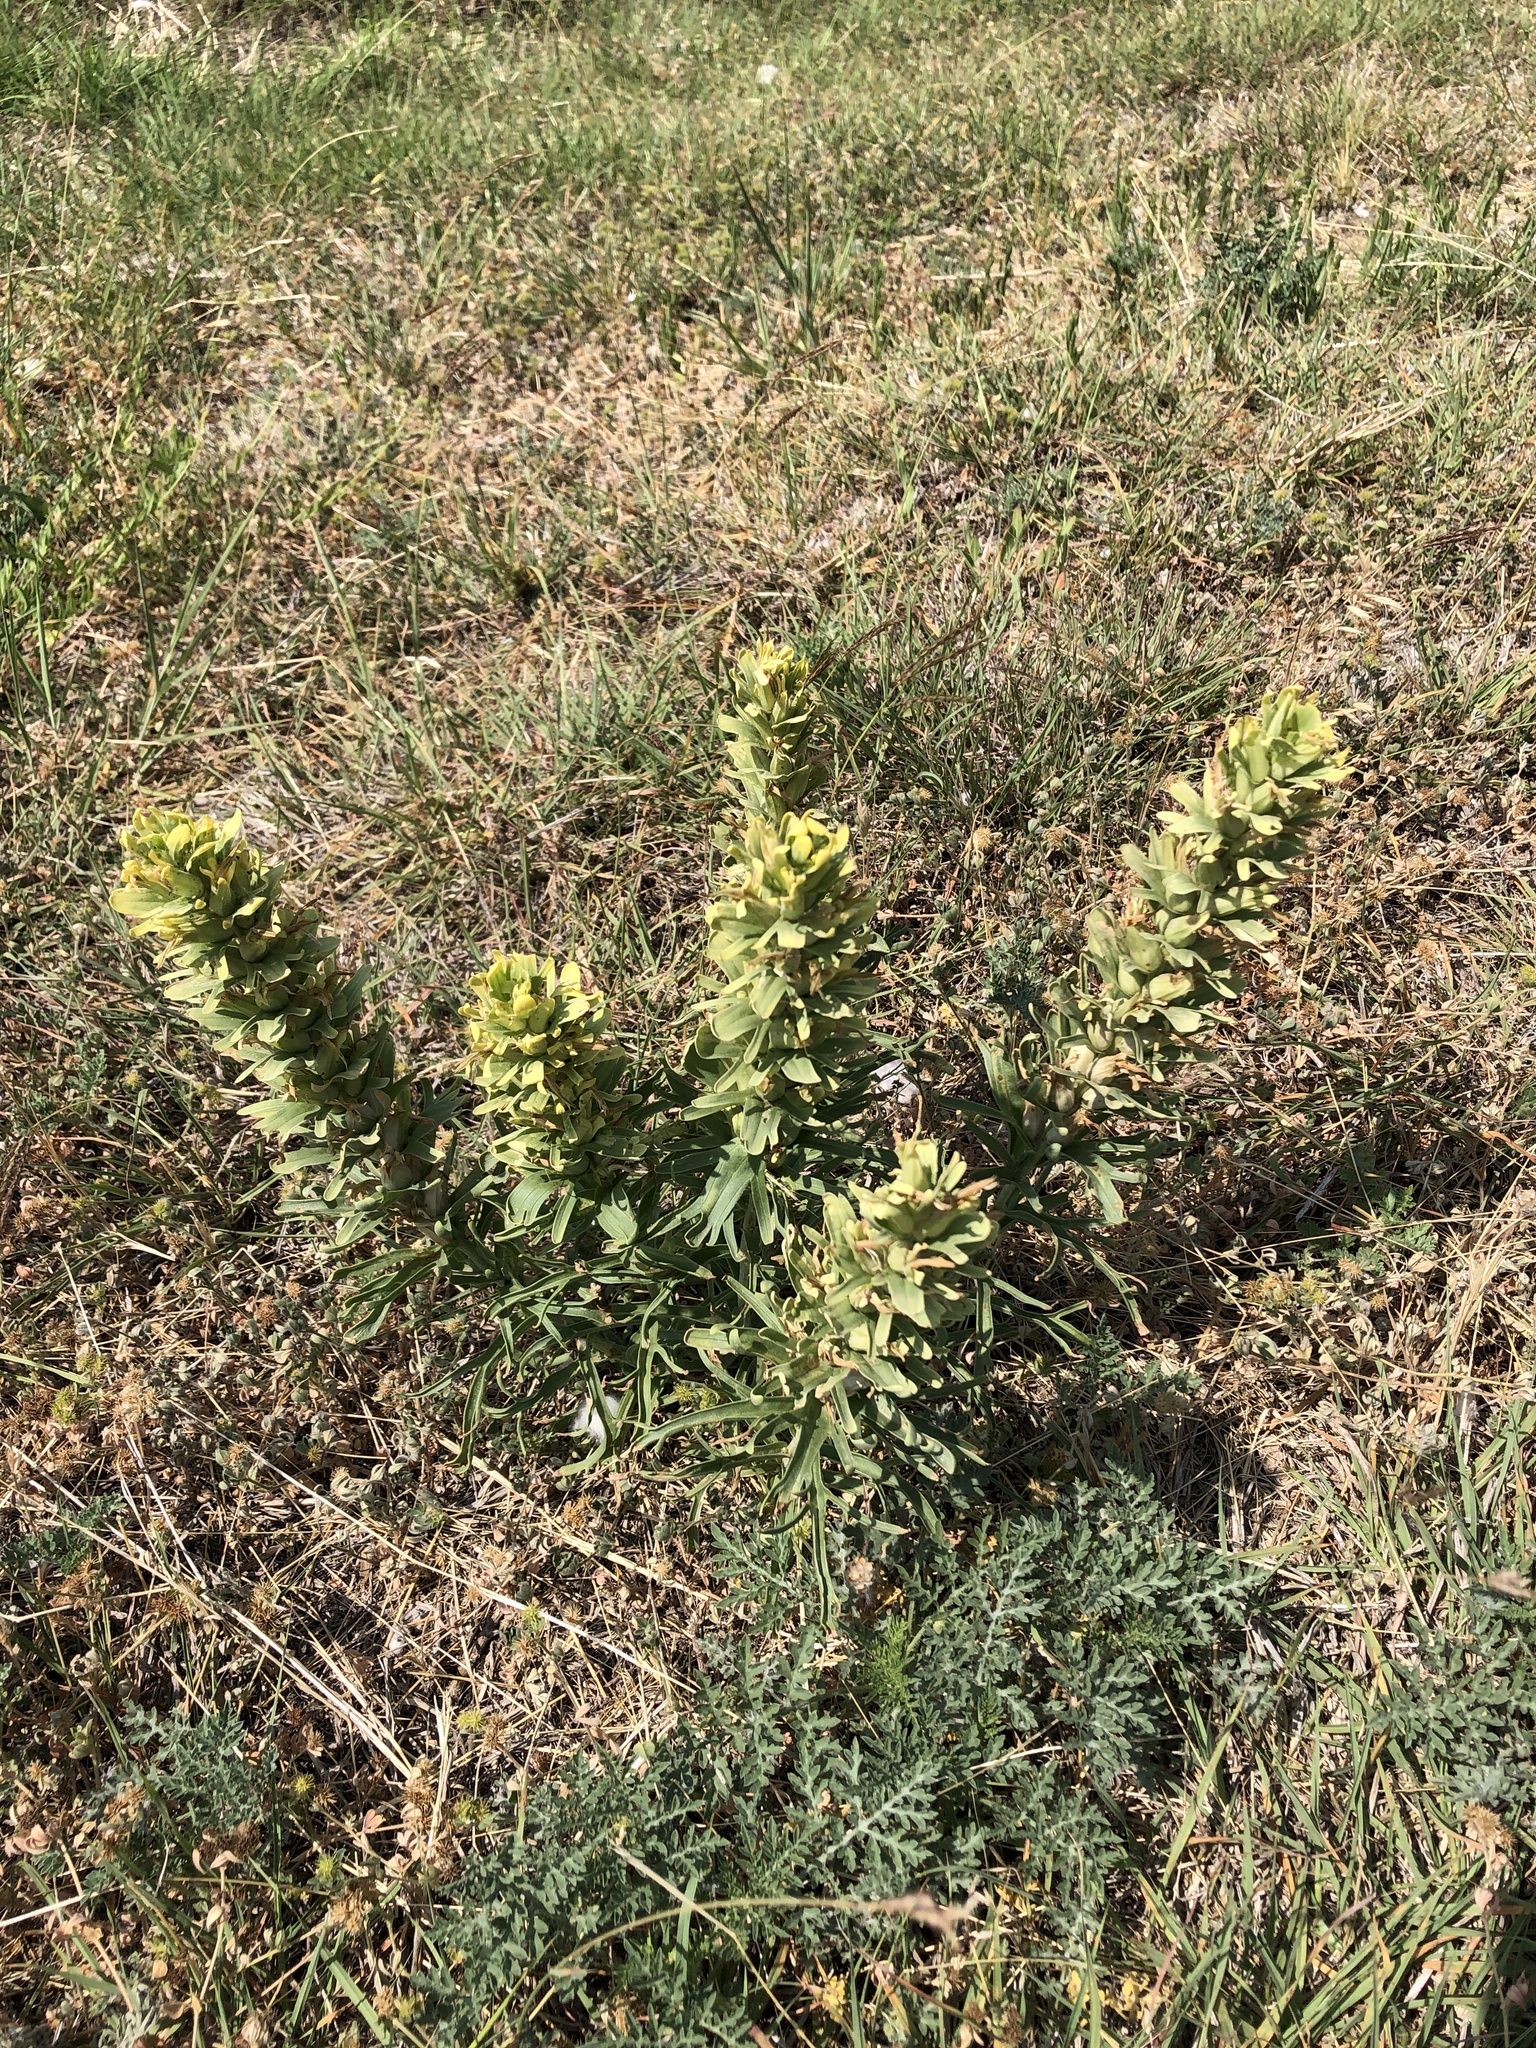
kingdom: Plantae
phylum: Tracheophyta
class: Magnoliopsida
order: Lamiales
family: Orobanchaceae
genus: Castilleja
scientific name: Castilleja citrina
